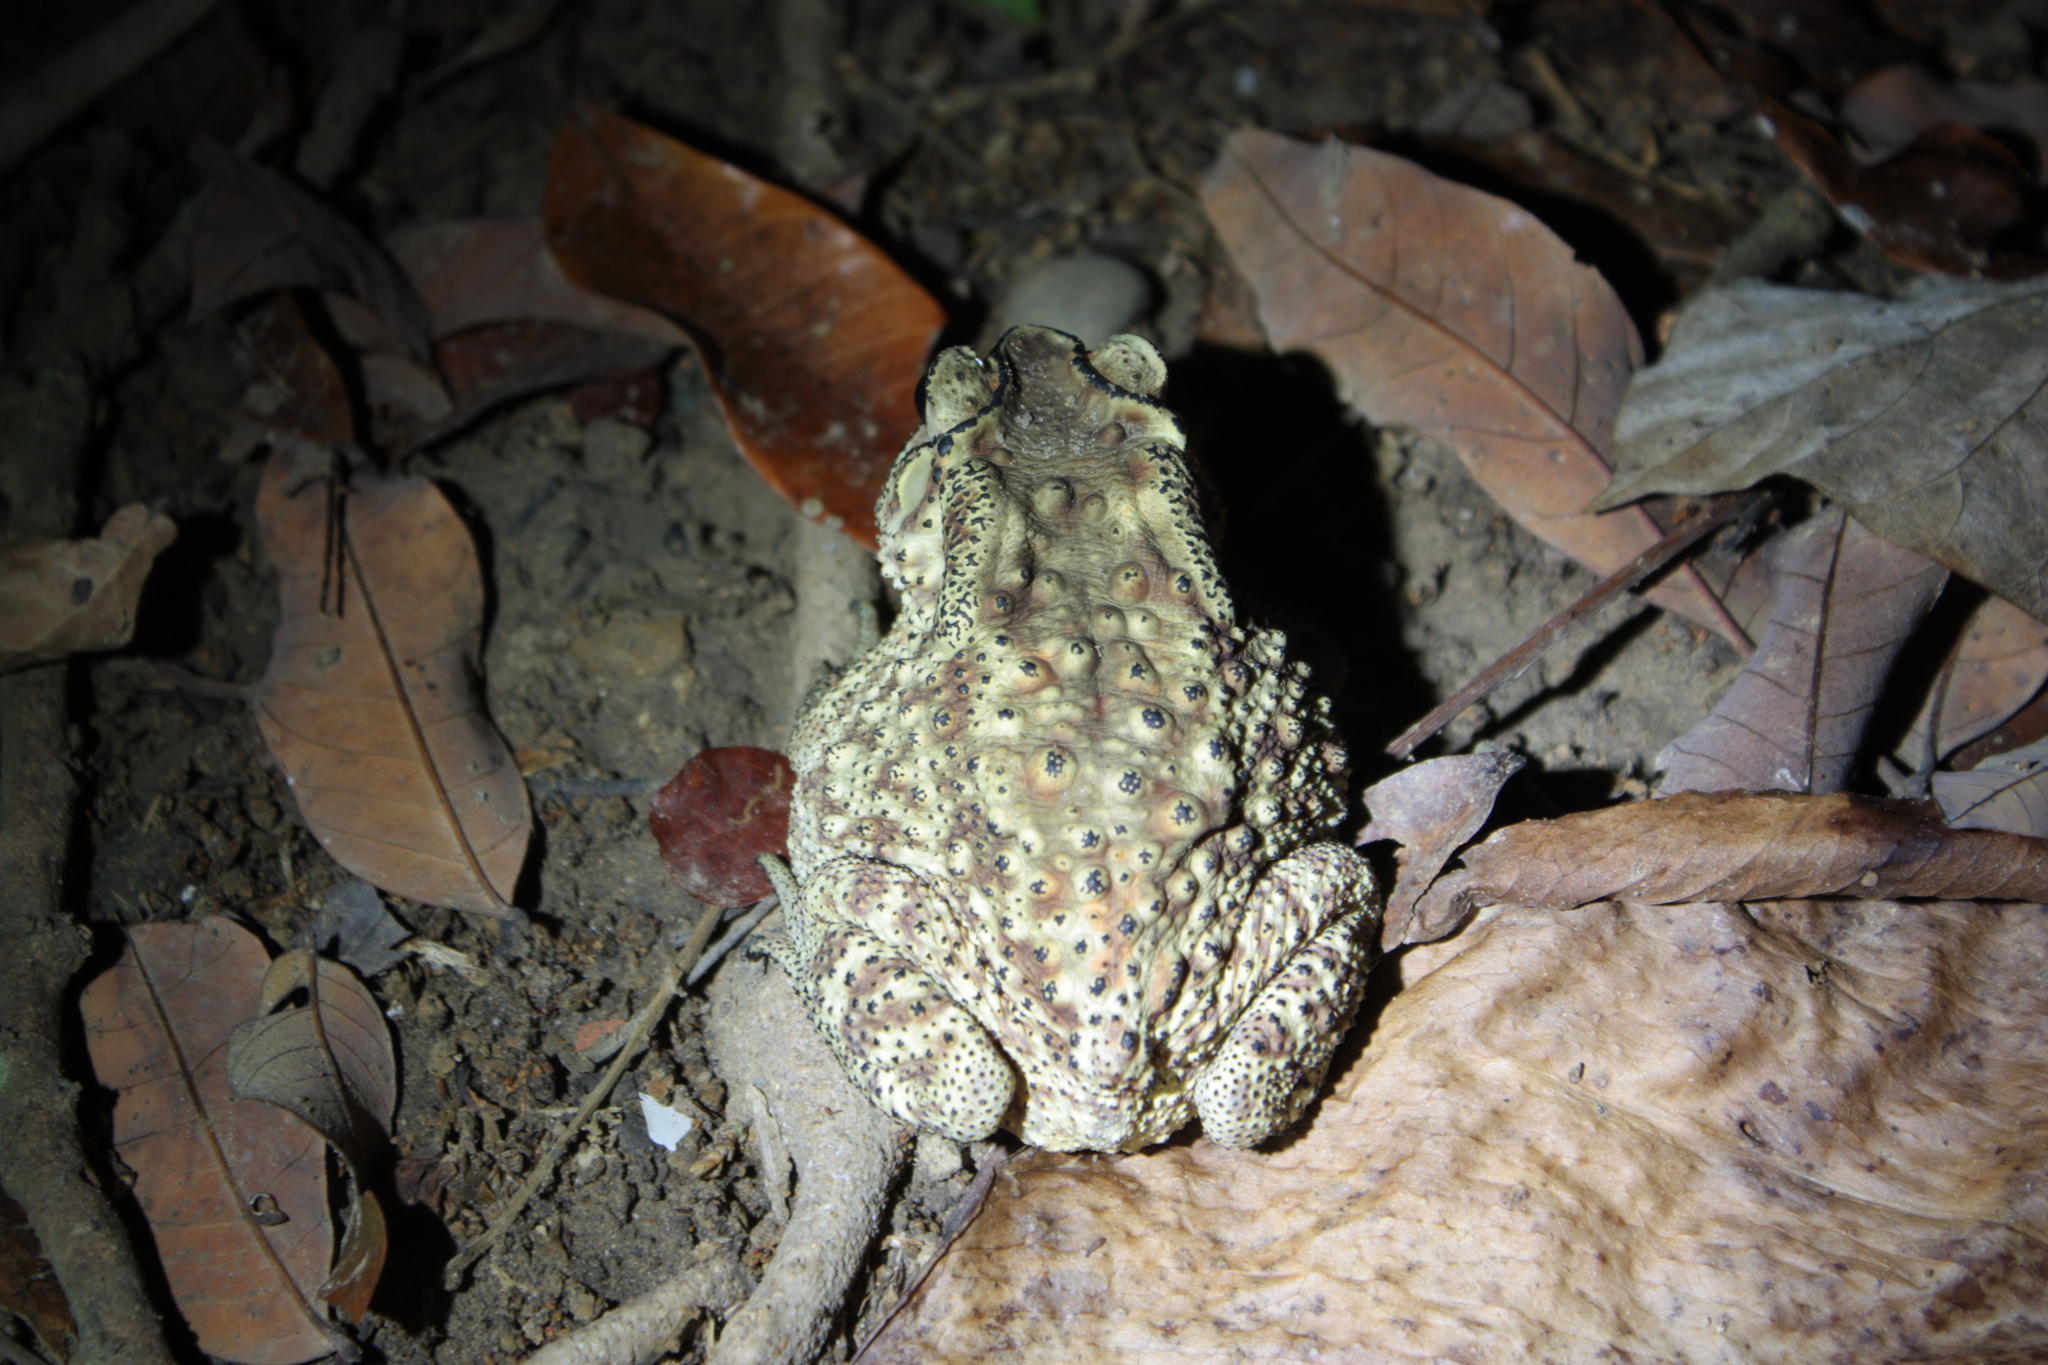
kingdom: Animalia
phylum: Chordata
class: Amphibia
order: Anura
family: Bufonidae
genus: Duttaphrynus
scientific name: Duttaphrynus melanostictus
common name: Common sunda toad
